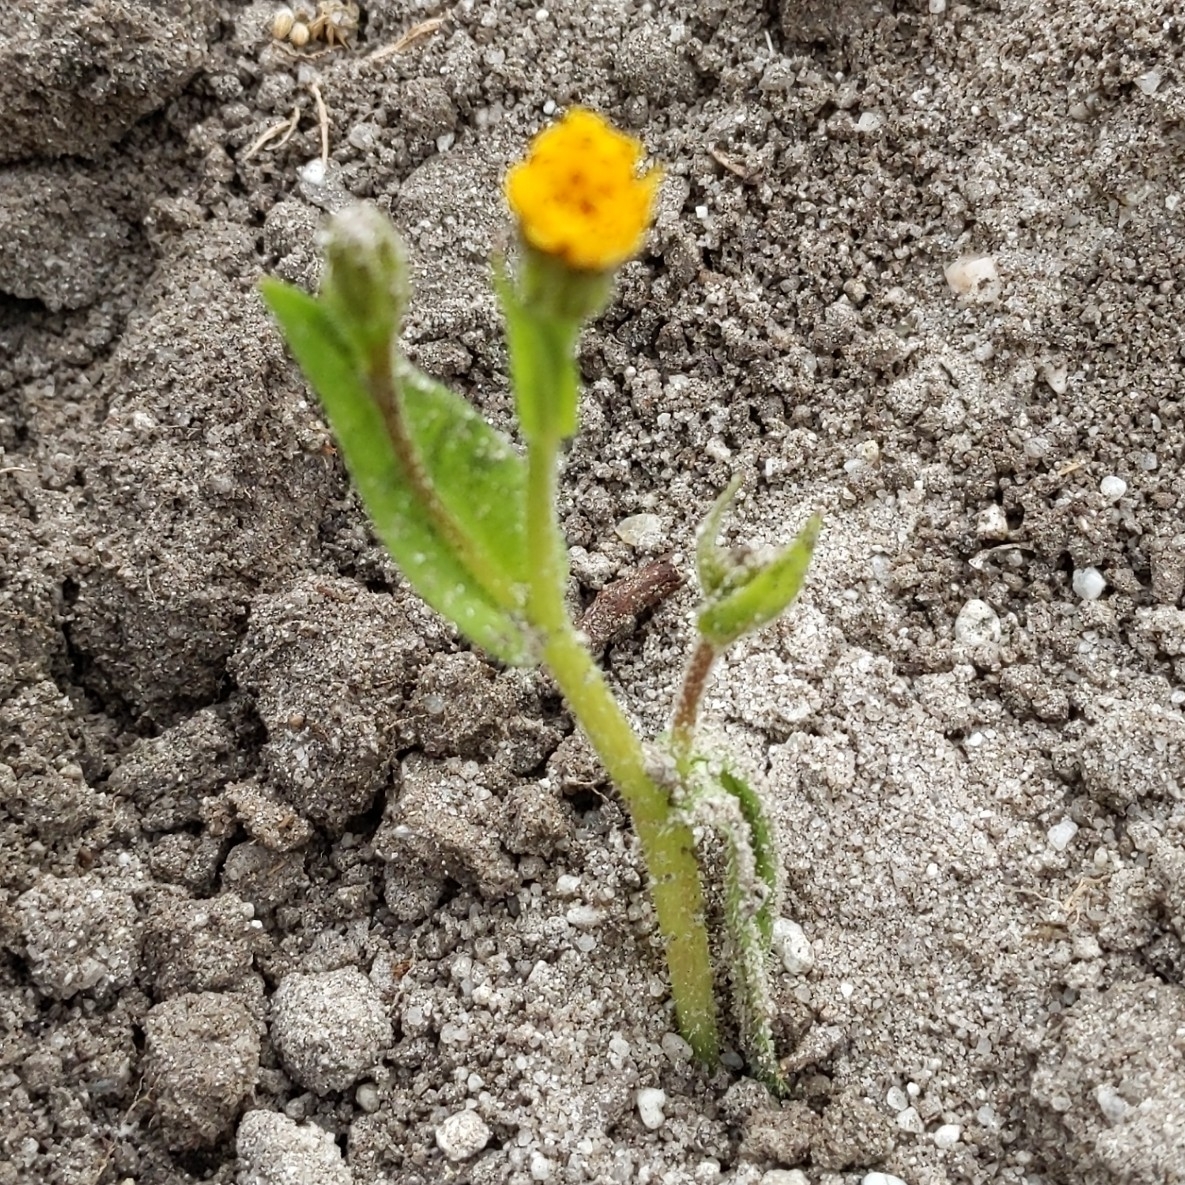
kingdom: Plantae
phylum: Tracheophyta
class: Magnoliopsida
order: Asterales
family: Asteraceae
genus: Hedypnois
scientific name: Hedypnois rhagadioloides
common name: Cretan weed
